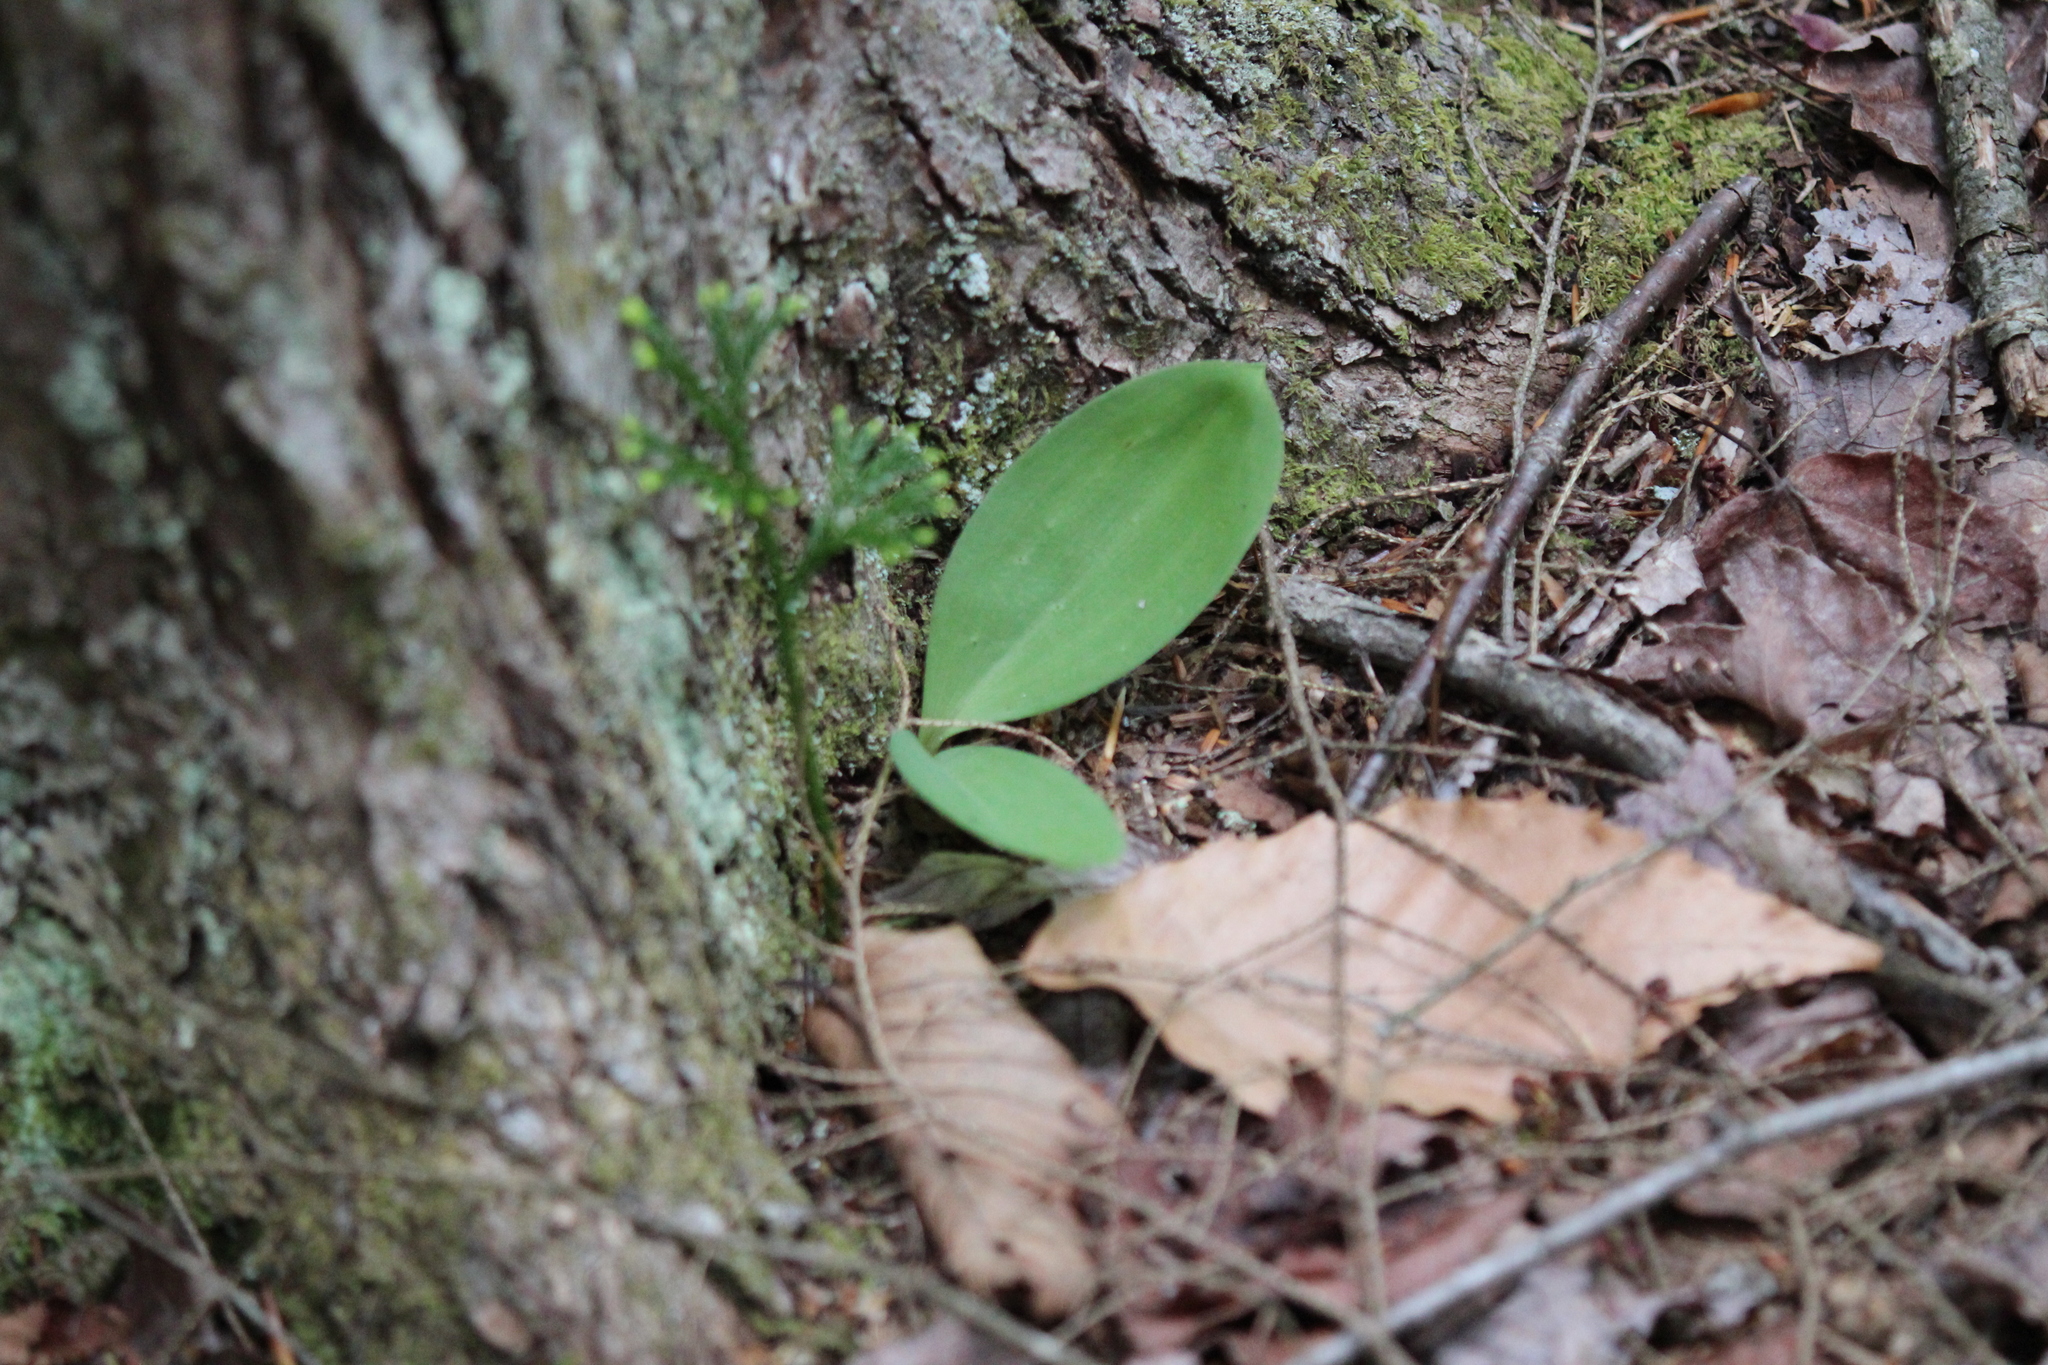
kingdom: Plantae
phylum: Tracheophyta
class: Liliopsida
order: Liliales
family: Liliaceae
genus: Clintonia
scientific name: Clintonia borealis
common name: Yellow clintonia
